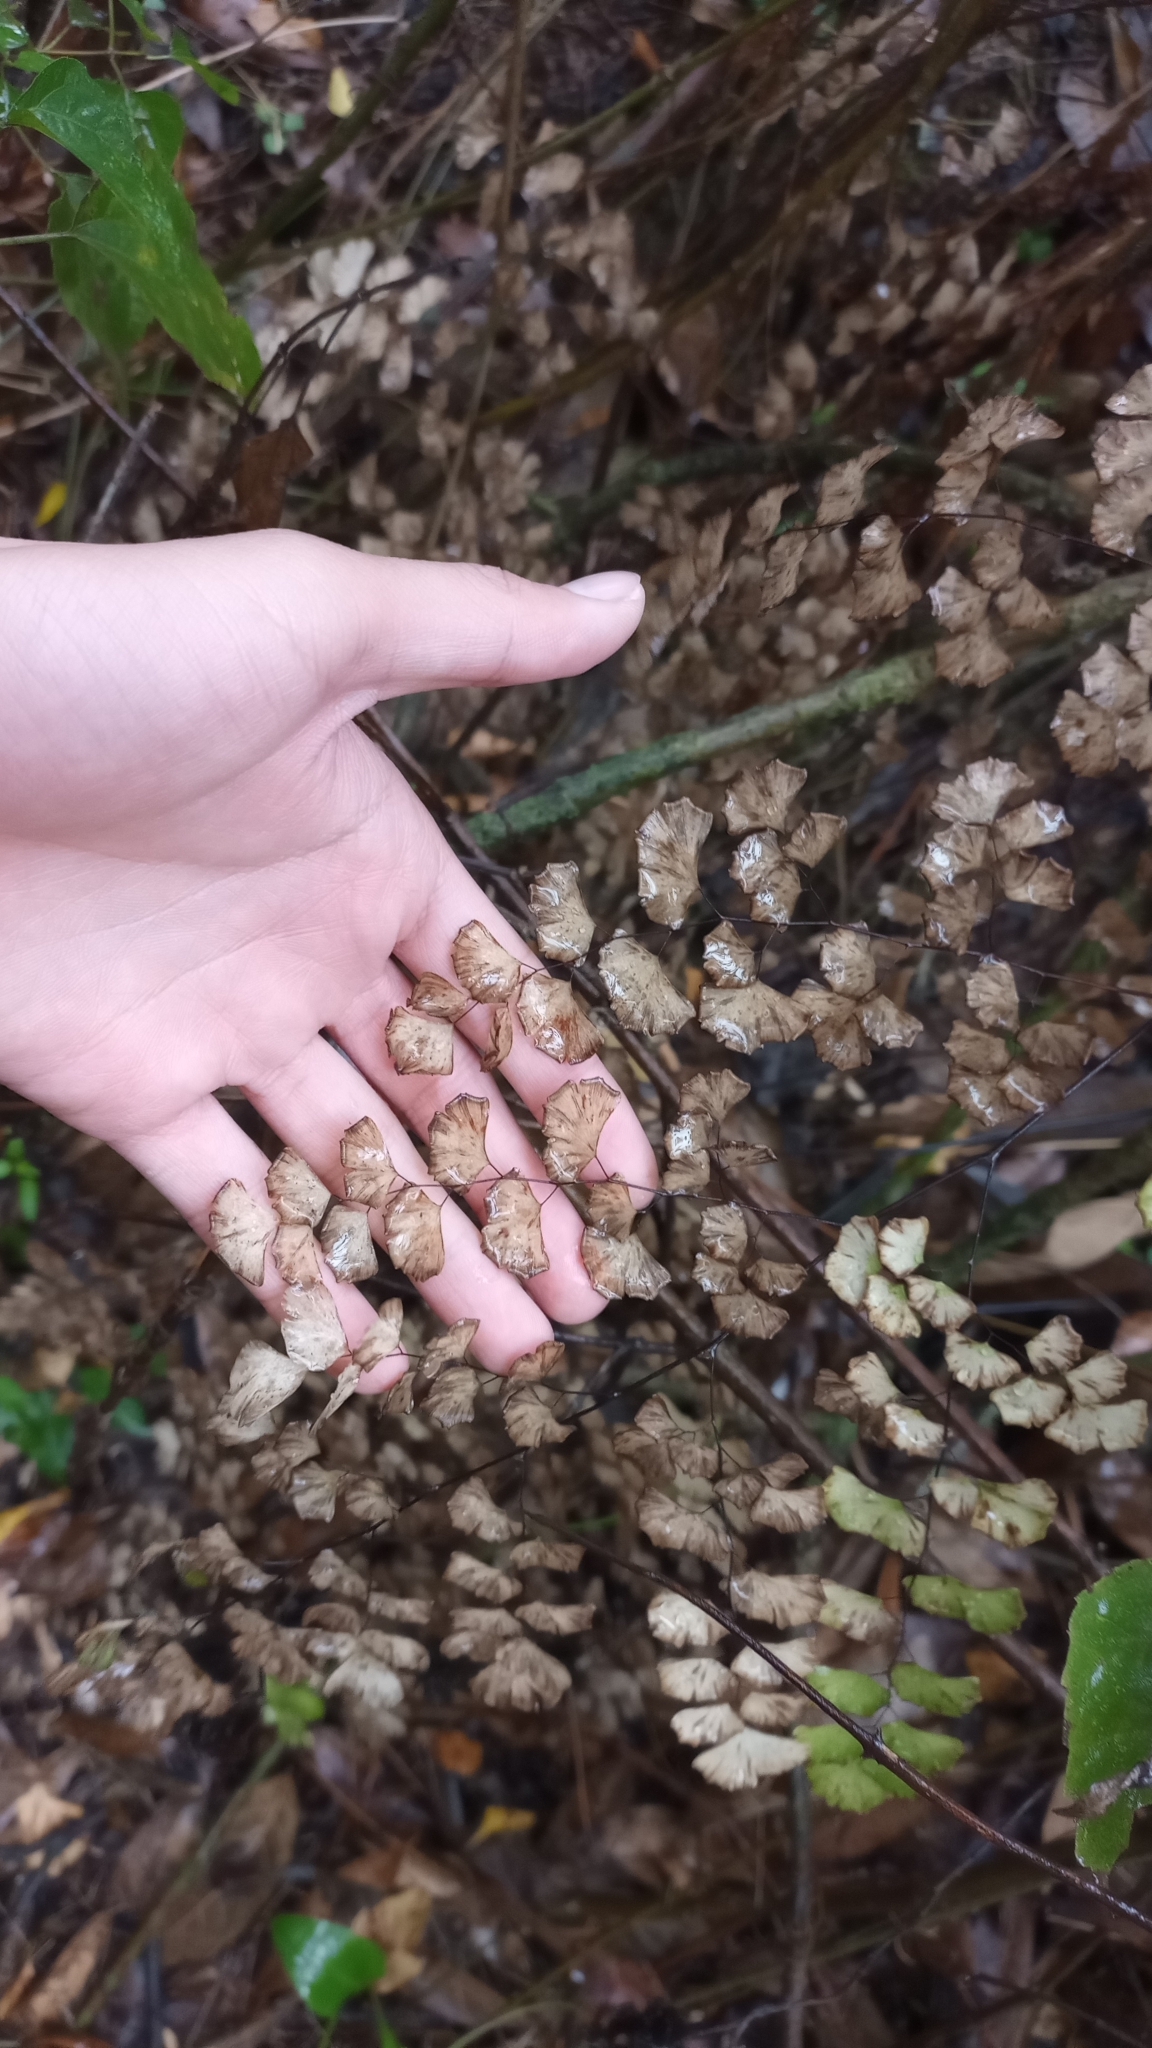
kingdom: Plantae
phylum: Tracheophyta
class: Polypodiopsida
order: Polypodiales
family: Pteridaceae
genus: Adiantum
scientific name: Adiantum braunii
